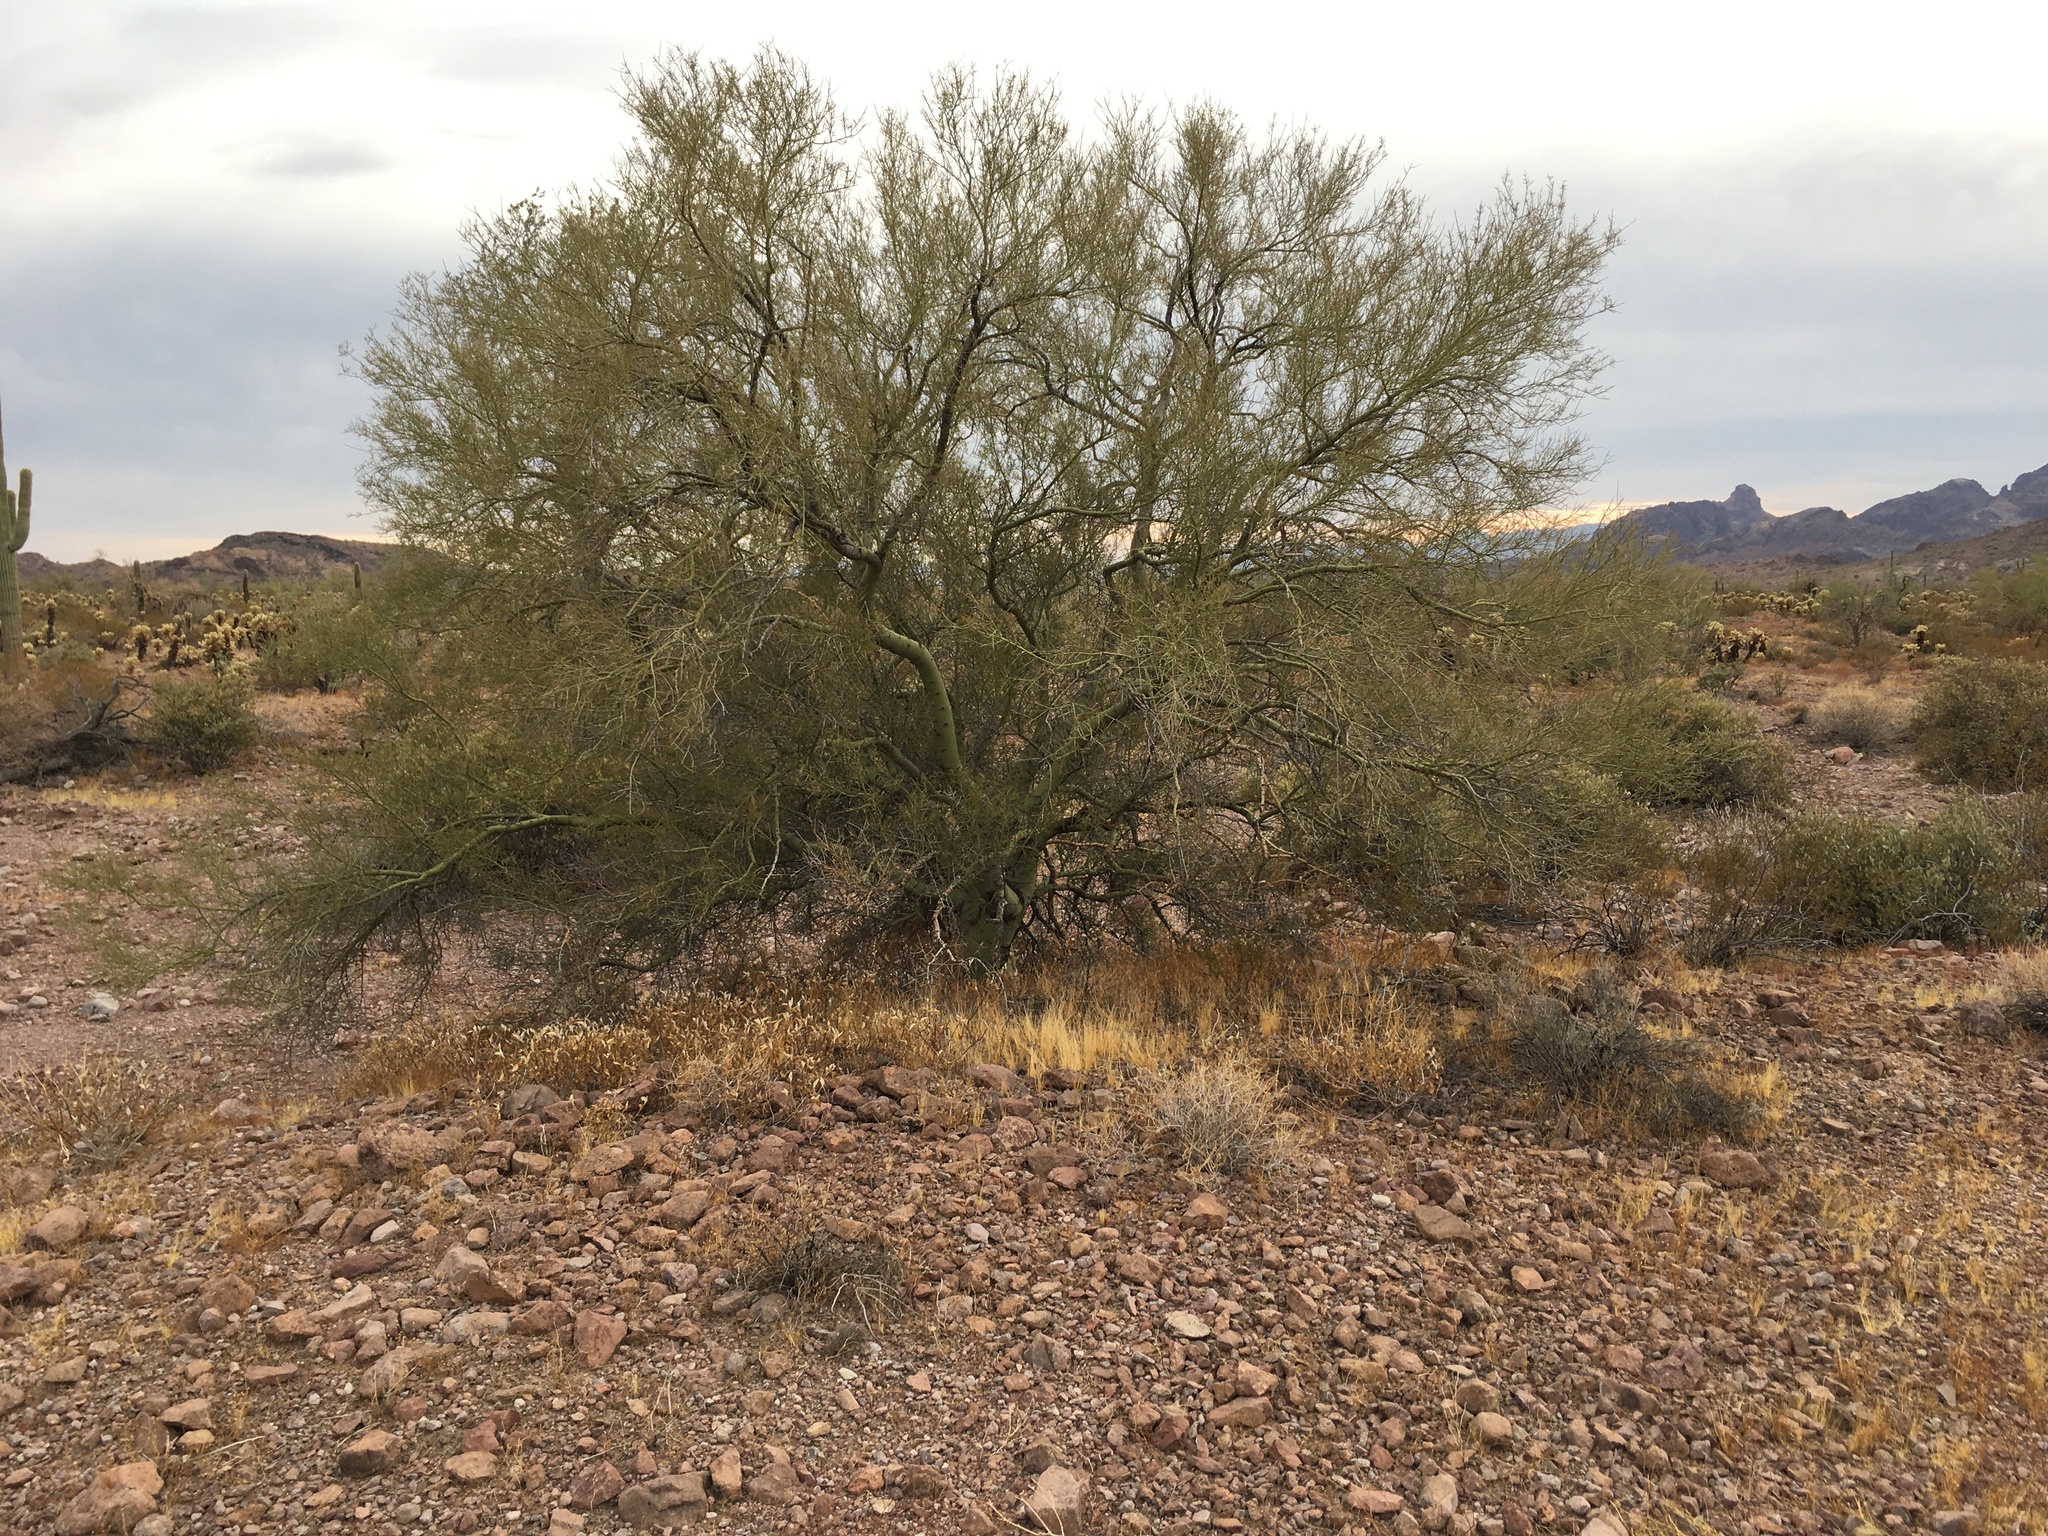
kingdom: Plantae
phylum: Tracheophyta
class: Magnoliopsida
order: Fabales
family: Fabaceae
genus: Parkinsonia
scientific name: Parkinsonia microphylla
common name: Yellow paloverde
